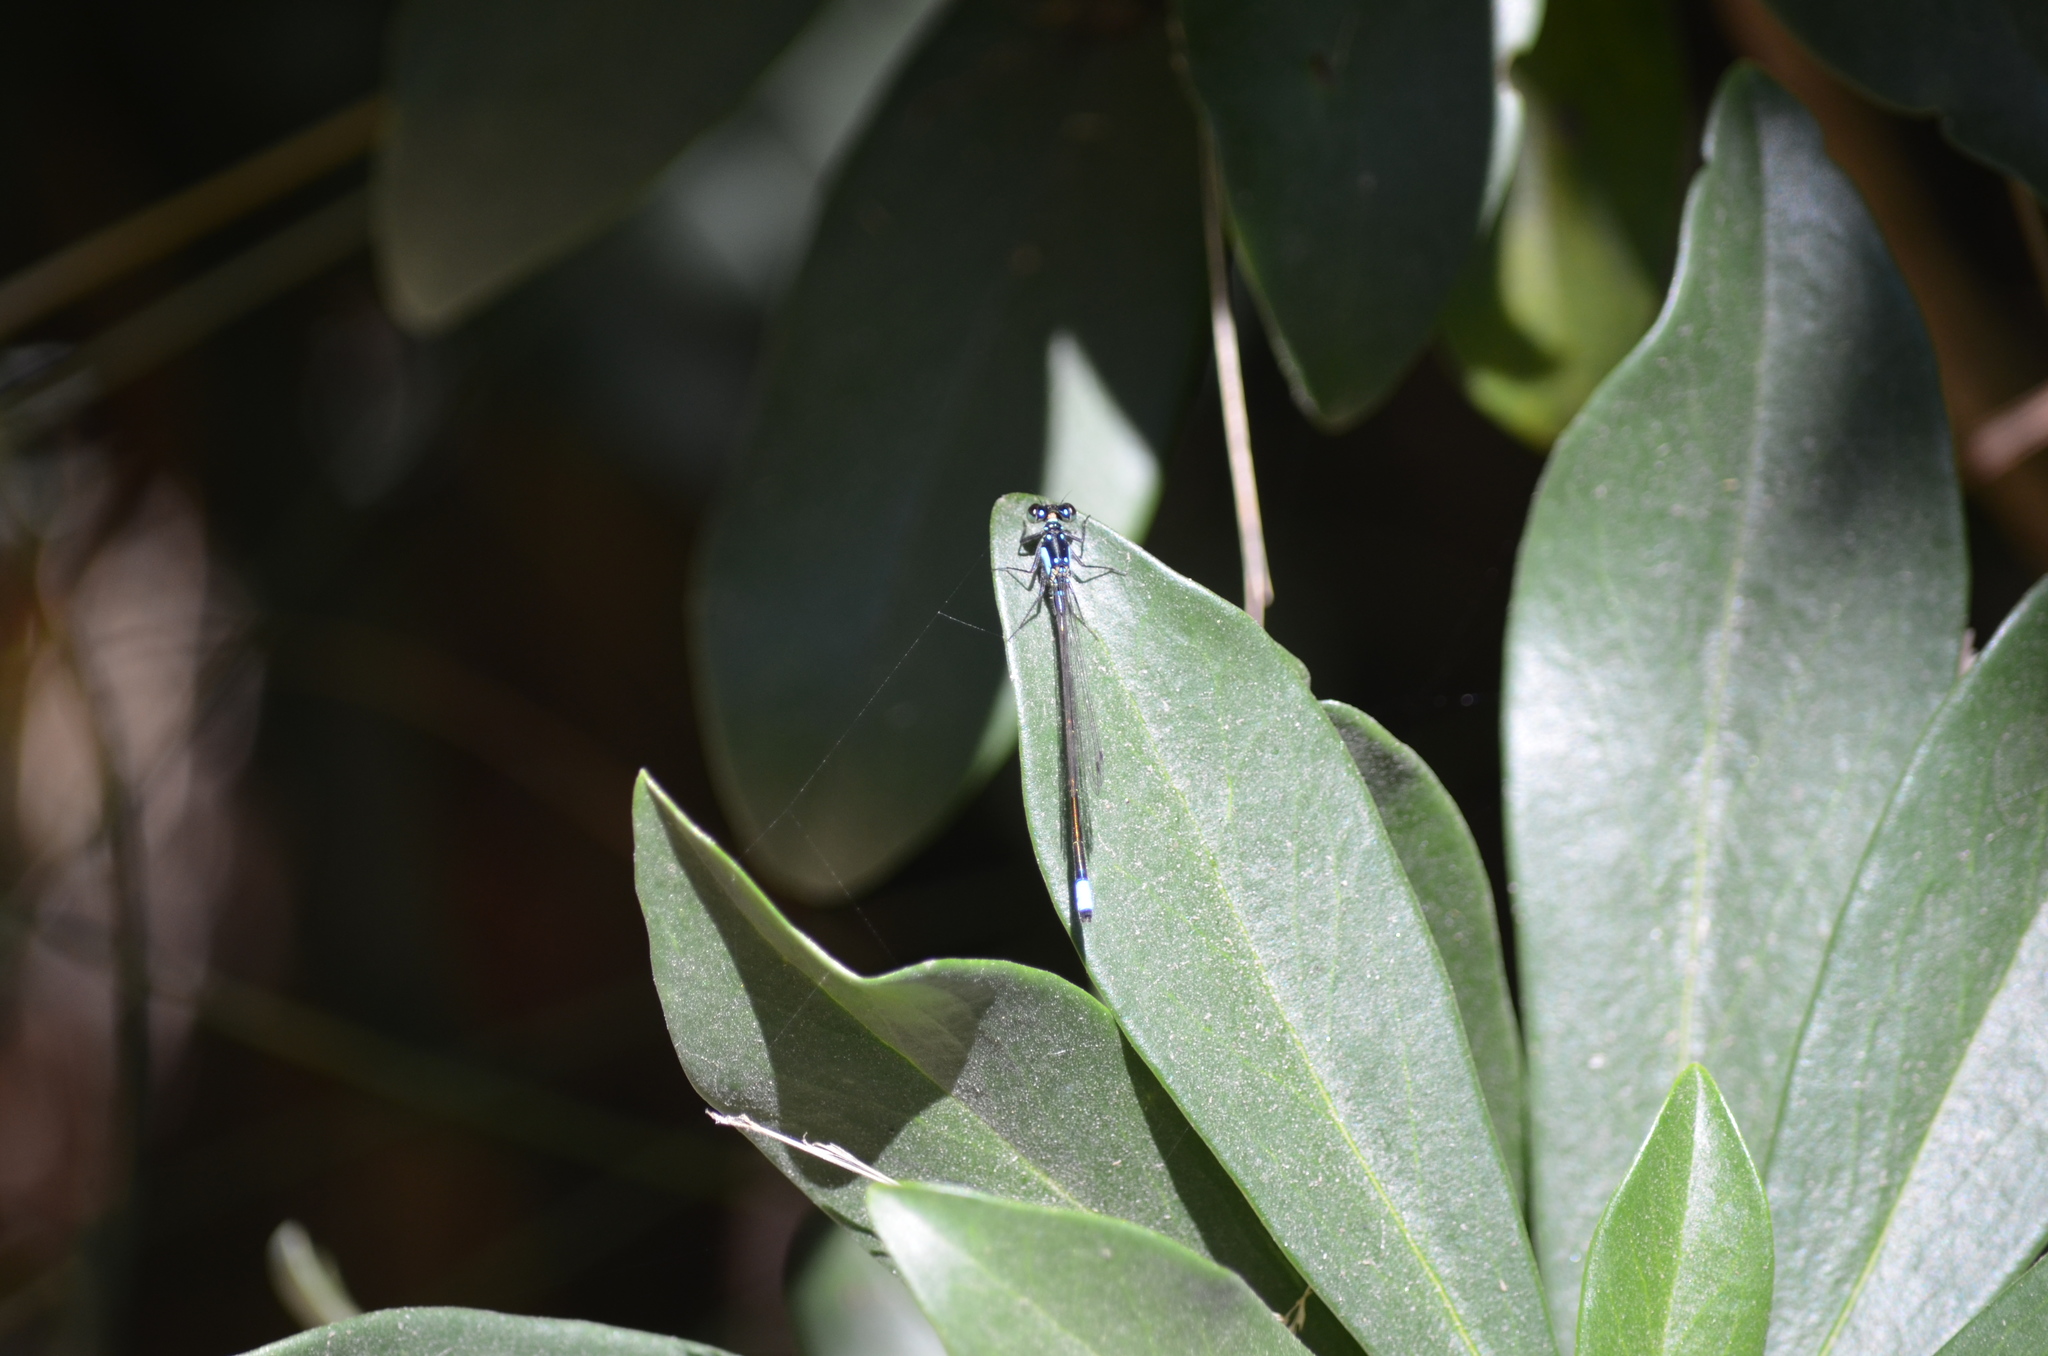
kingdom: Animalia
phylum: Arthropoda
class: Insecta
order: Odonata
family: Coenagrionidae
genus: Ischnura
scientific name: Ischnura cervula
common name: Pacific forktail
